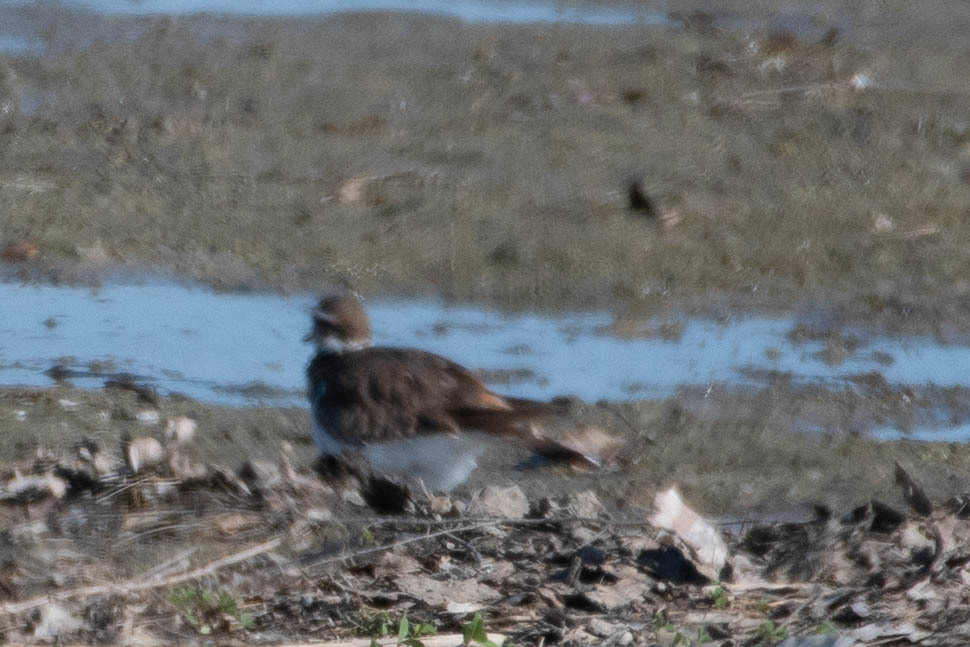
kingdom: Animalia
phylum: Chordata
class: Aves
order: Charadriiformes
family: Charadriidae
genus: Charadrius
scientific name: Charadrius vociferus
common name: Killdeer
